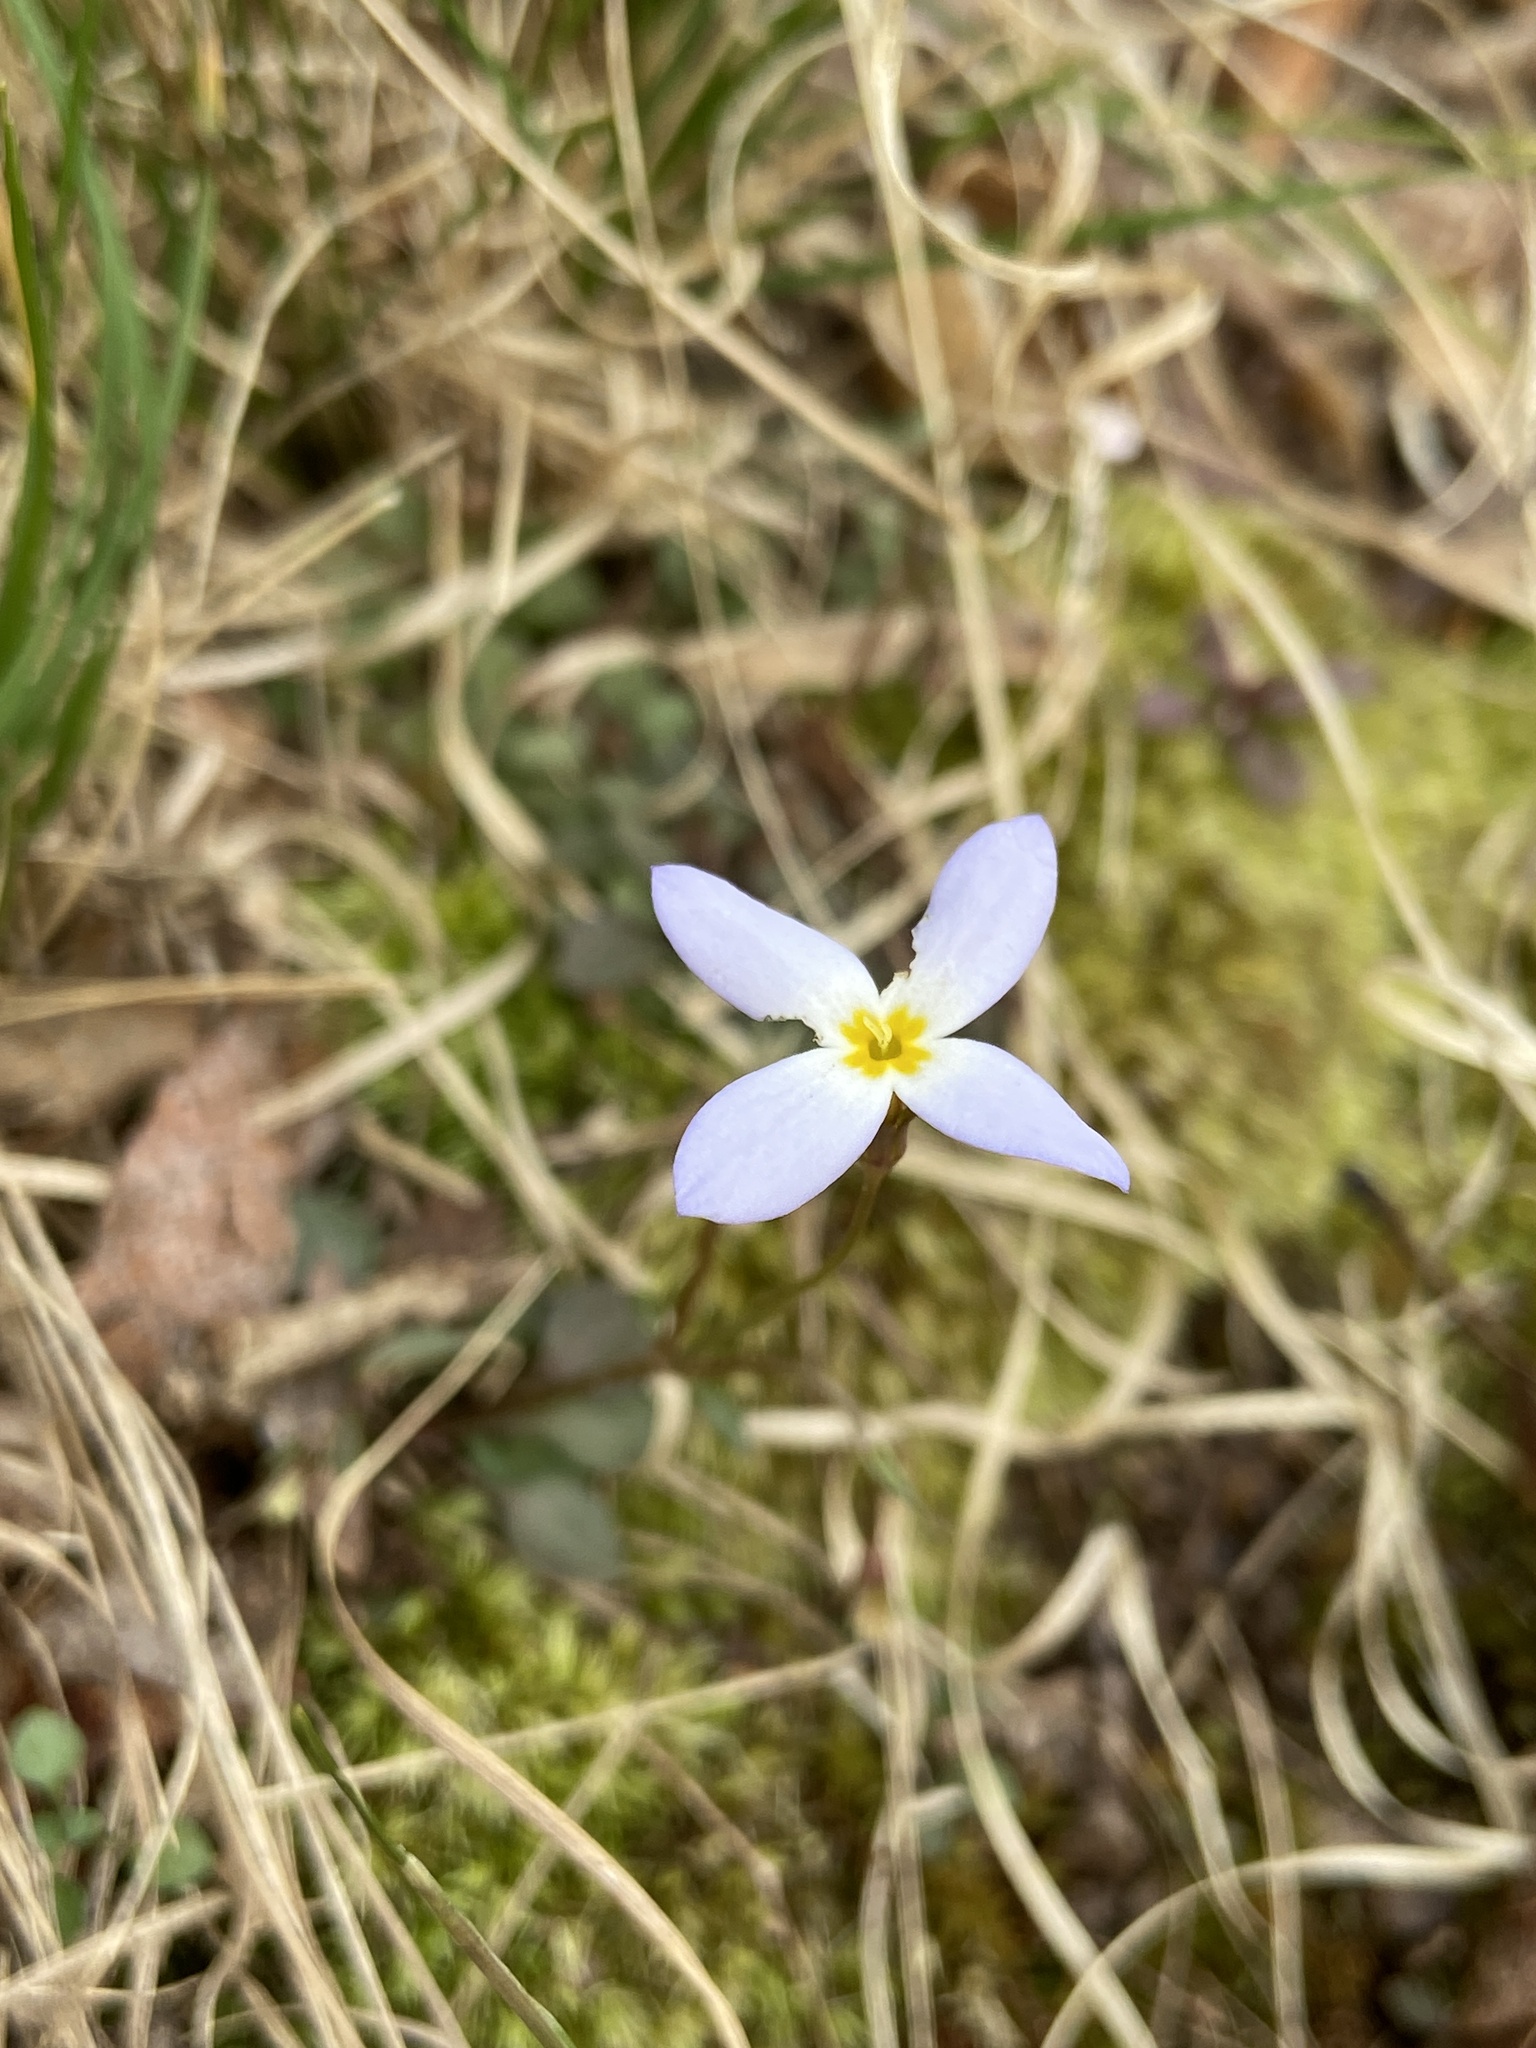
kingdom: Plantae
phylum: Tracheophyta
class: Magnoliopsida
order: Gentianales
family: Rubiaceae
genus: Houstonia
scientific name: Houstonia caerulea
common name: Bluets
